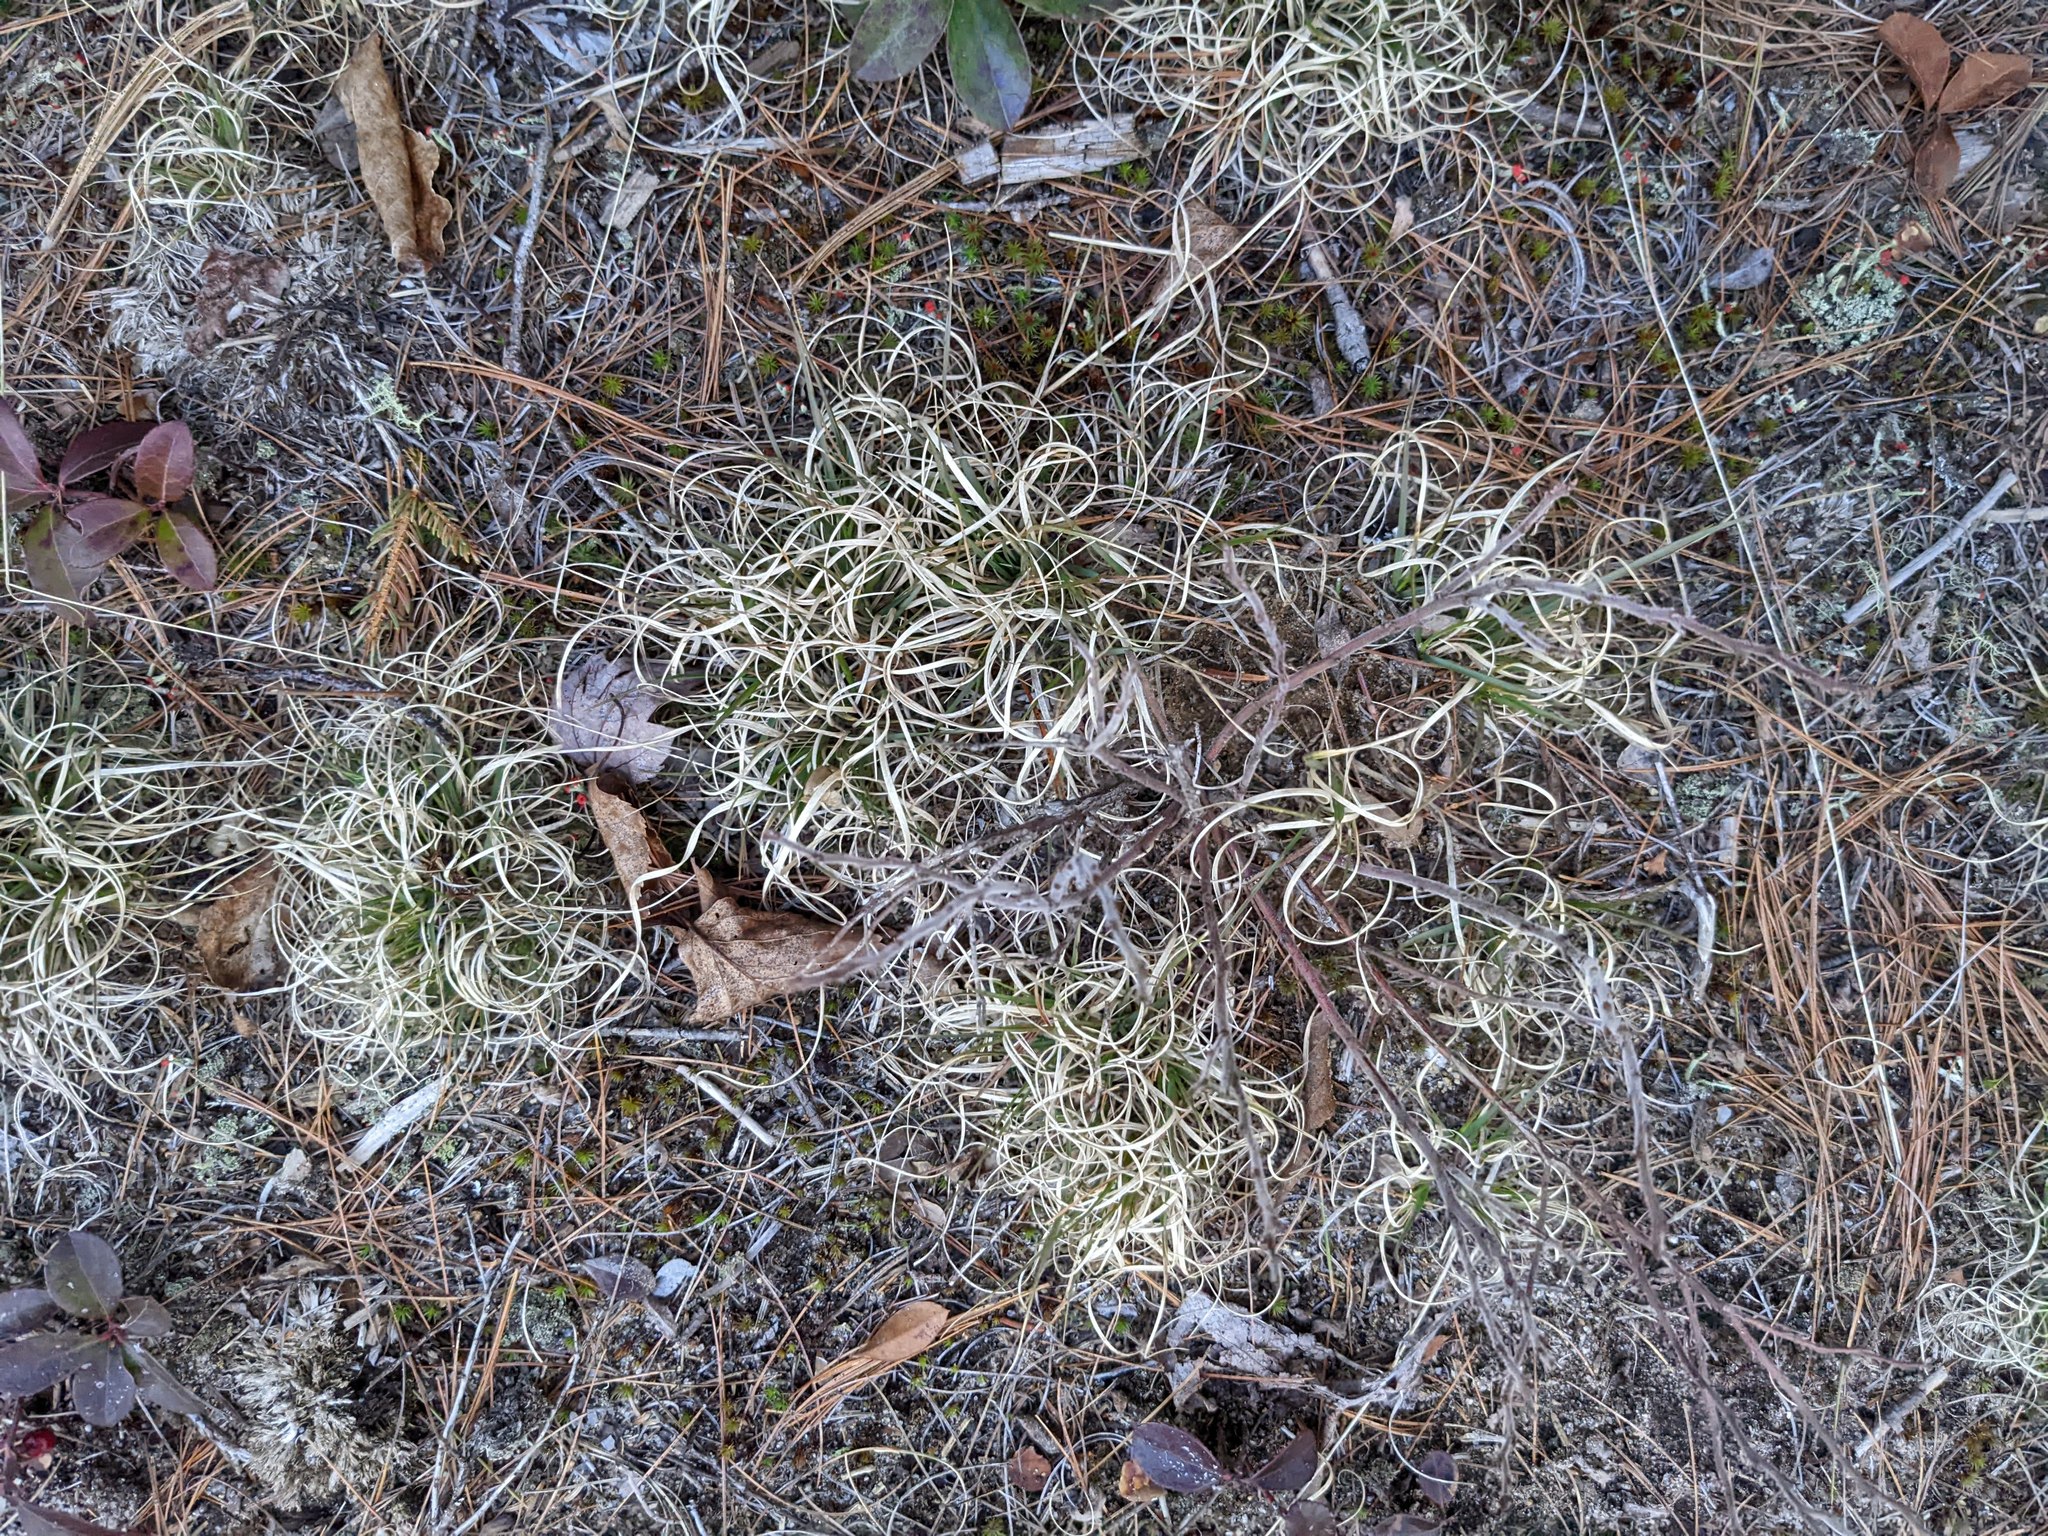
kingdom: Plantae
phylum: Tracheophyta
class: Liliopsida
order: Poales
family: Poaceae
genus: Danthonia
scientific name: Danthonia spicata
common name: Common wild oatgrass
